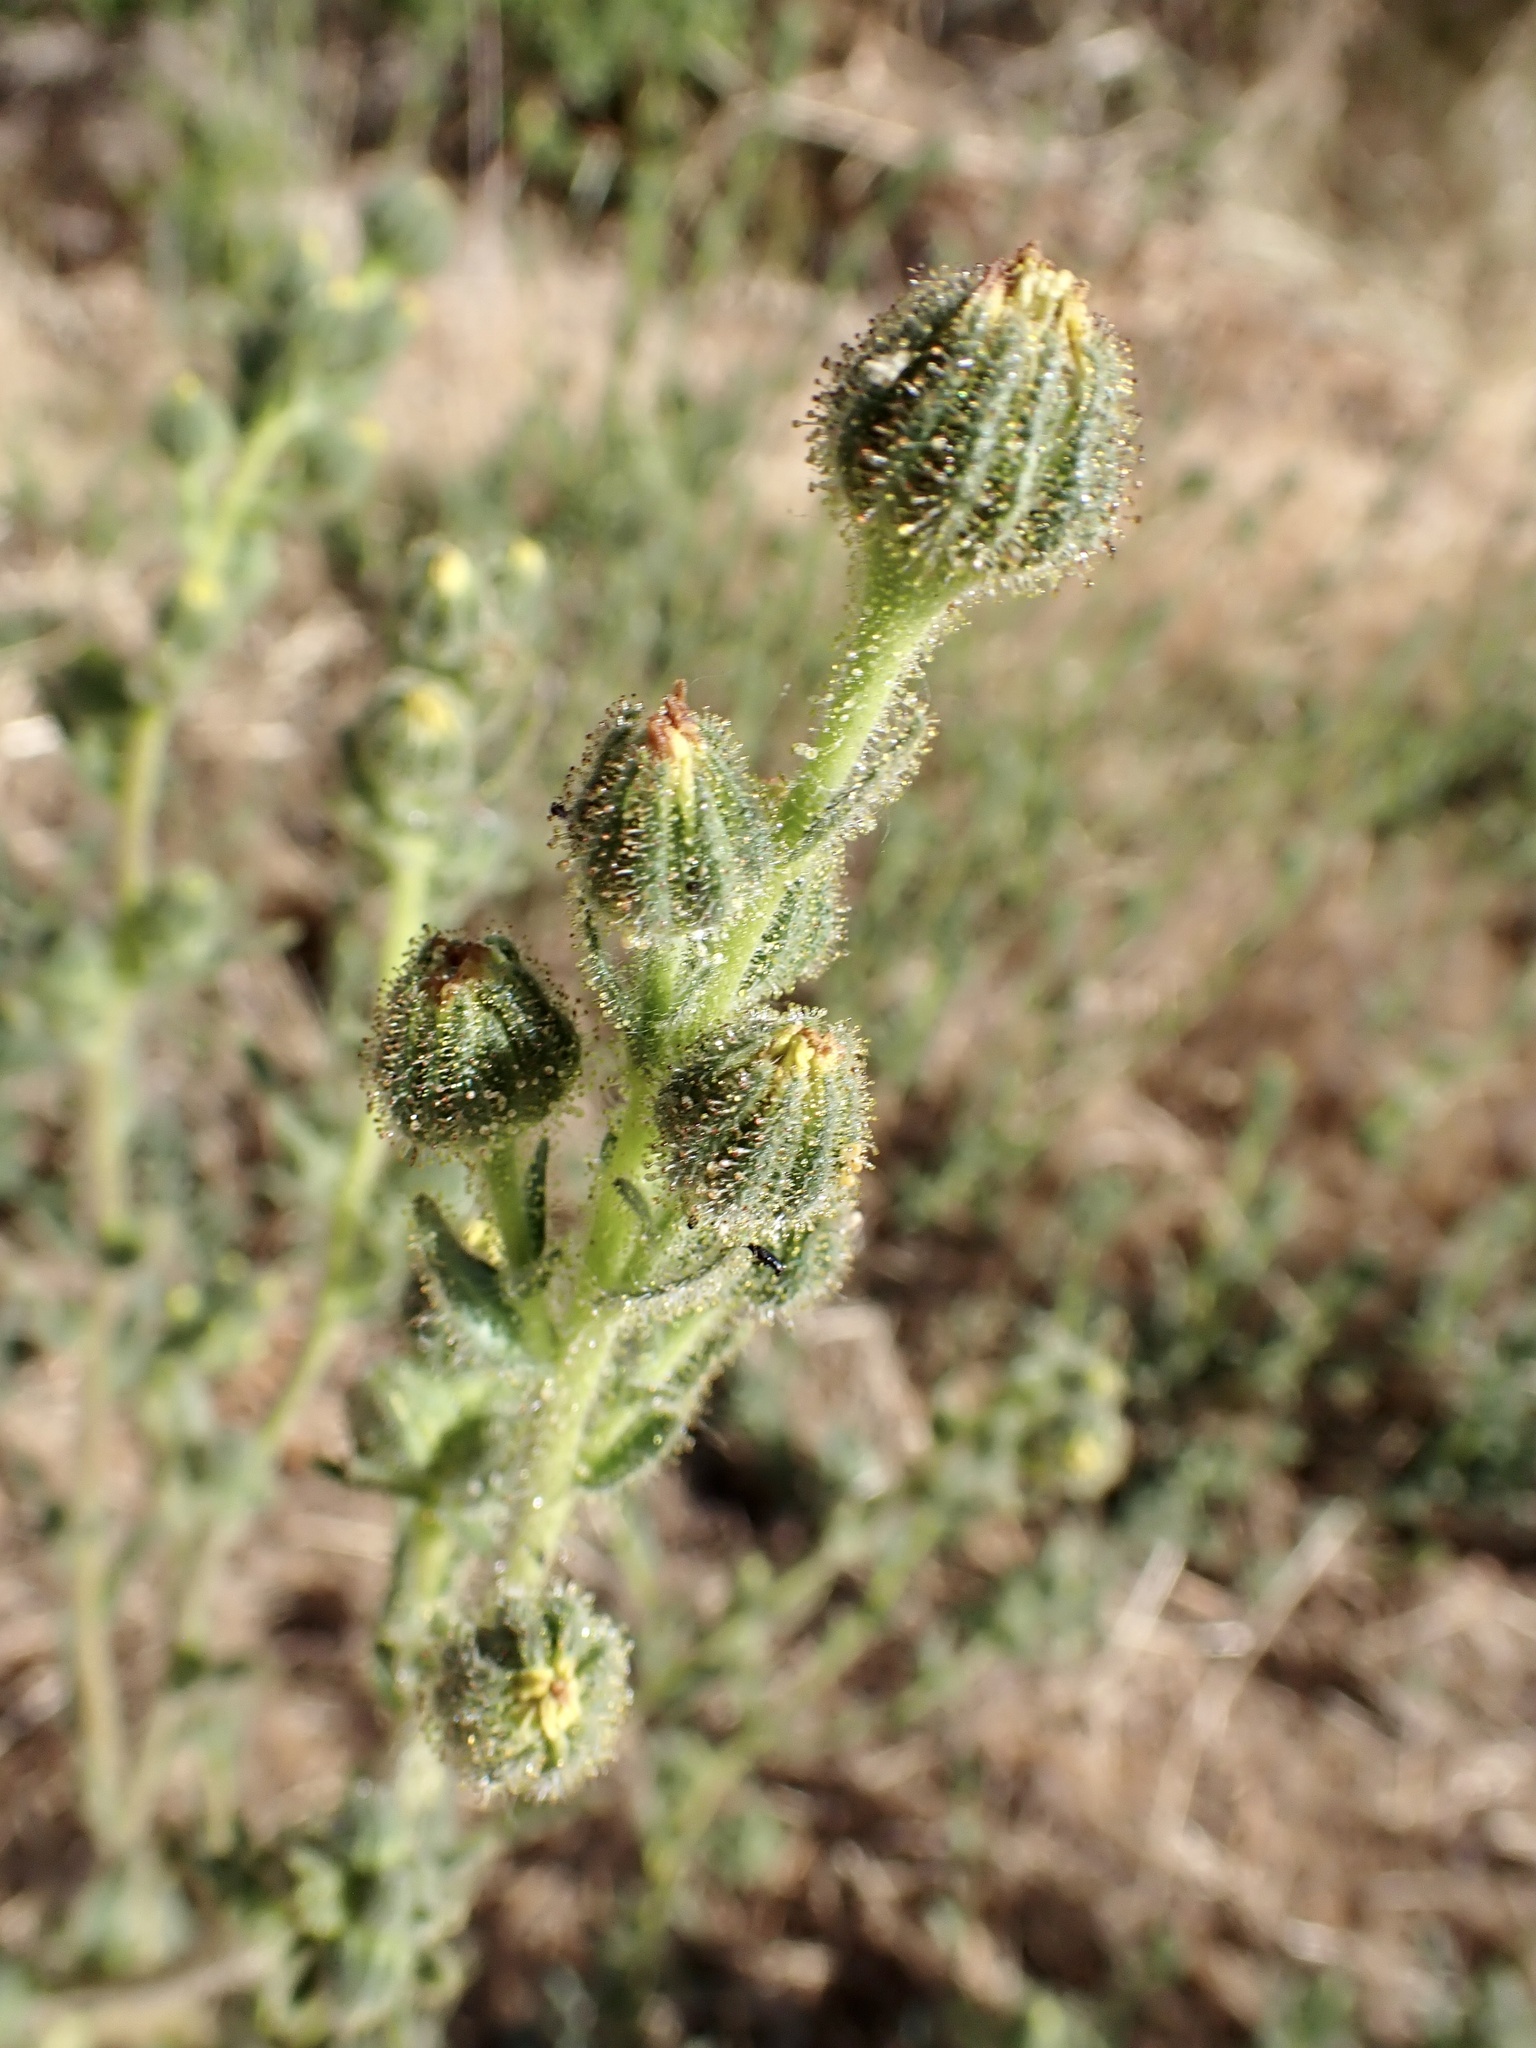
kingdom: Plantae
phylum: Tracheophyta
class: Magnoliopsida
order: Asterales
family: Asteraceae
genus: Madia
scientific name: Madia sativa
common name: Coast tarweed
